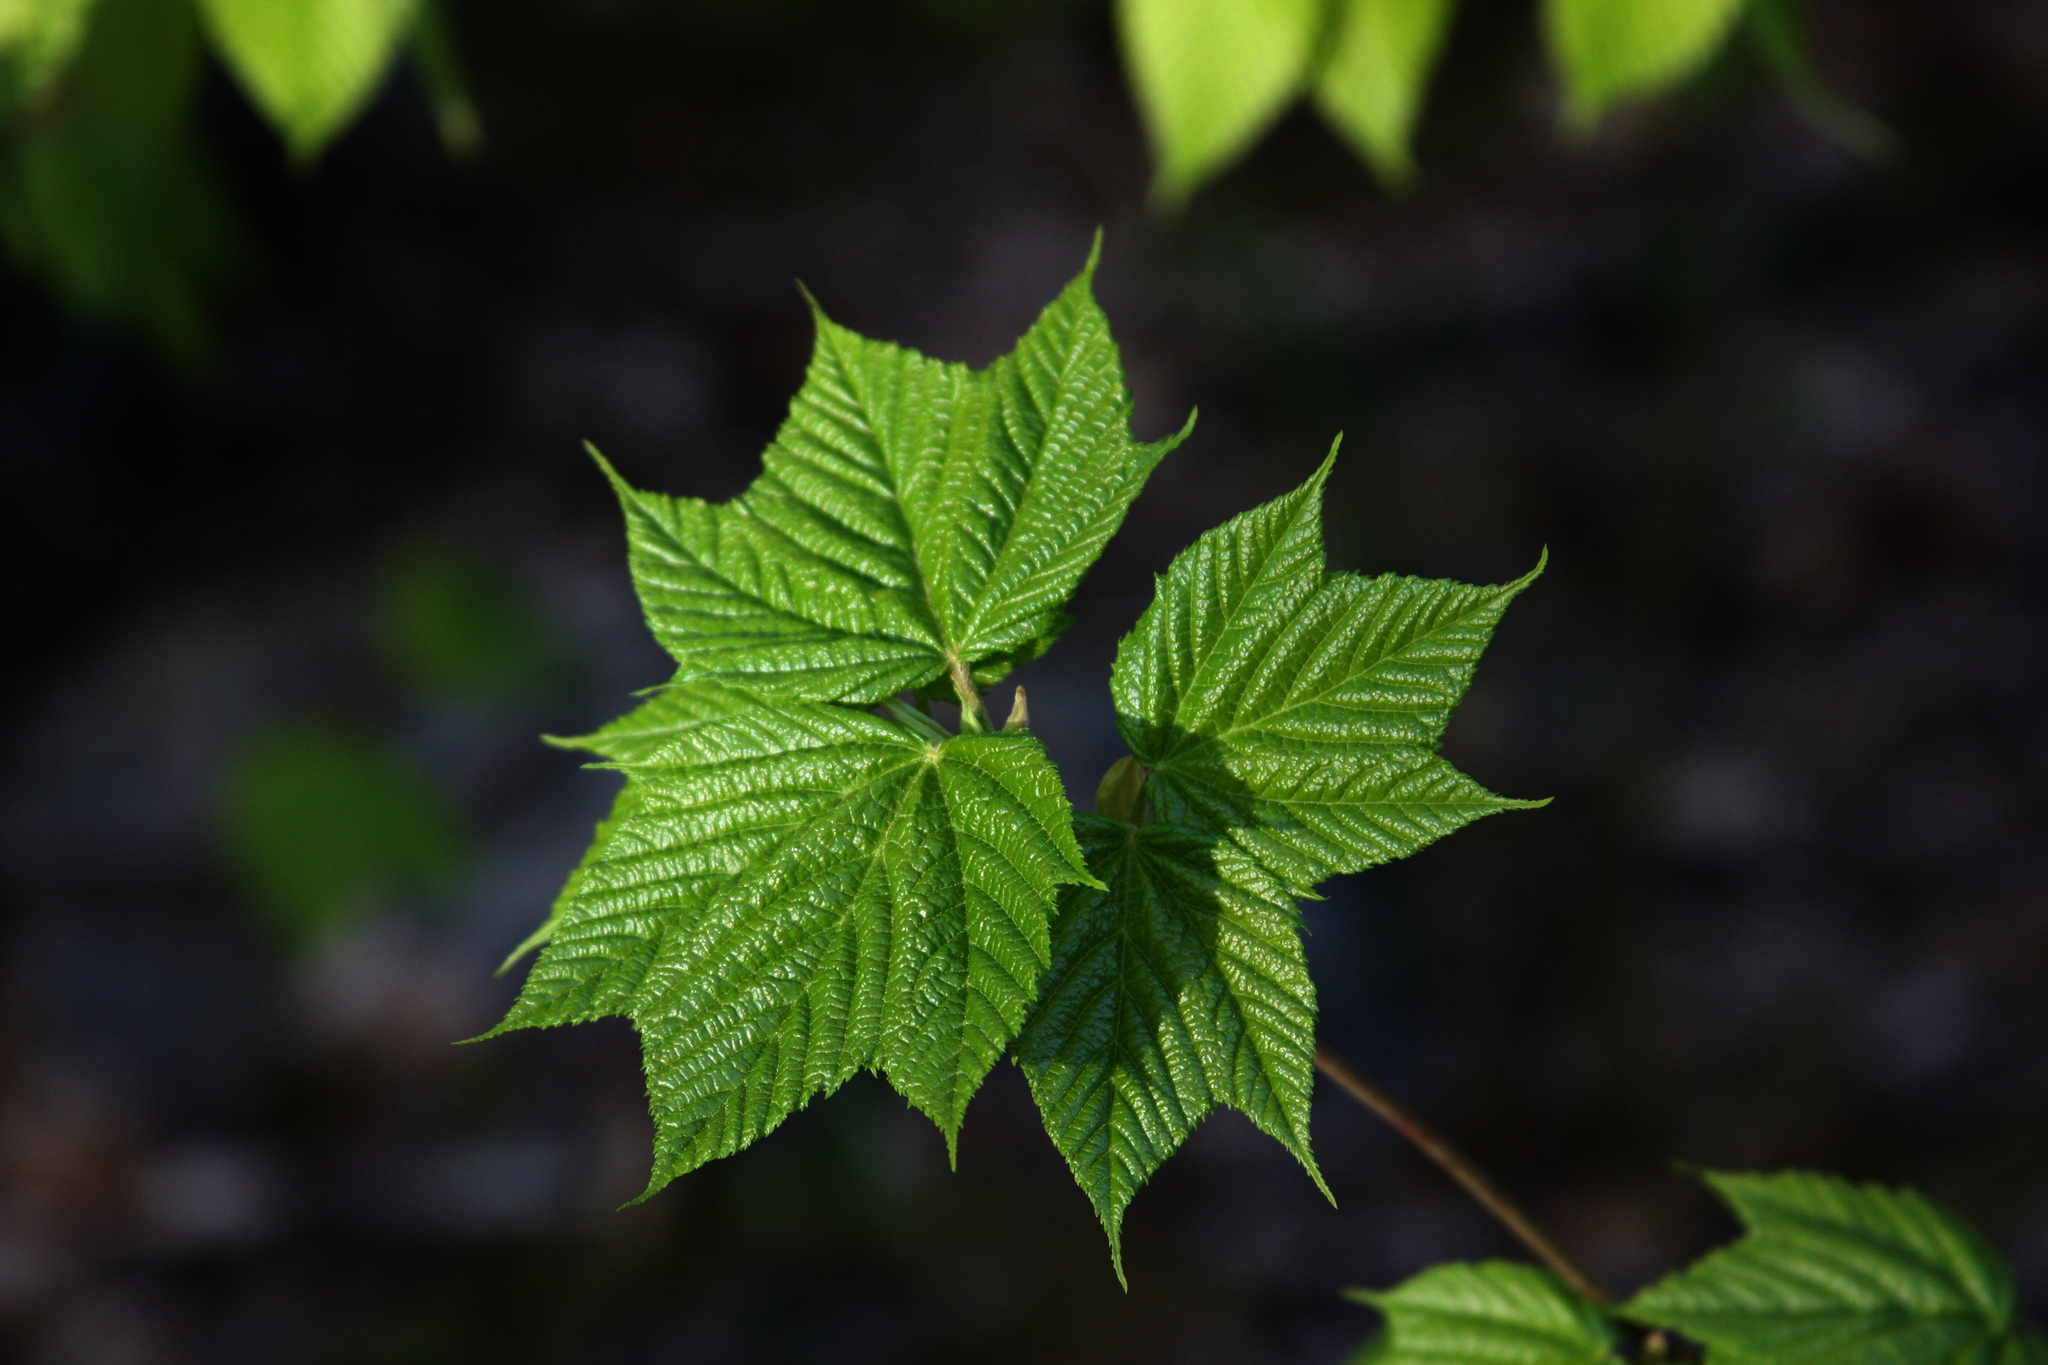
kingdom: Plantae
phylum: Tracheophyta
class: Magnoliopsida
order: Sapindales
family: Sapindaceae
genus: Acer
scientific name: Acer pensylvanicum
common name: Moosewood
